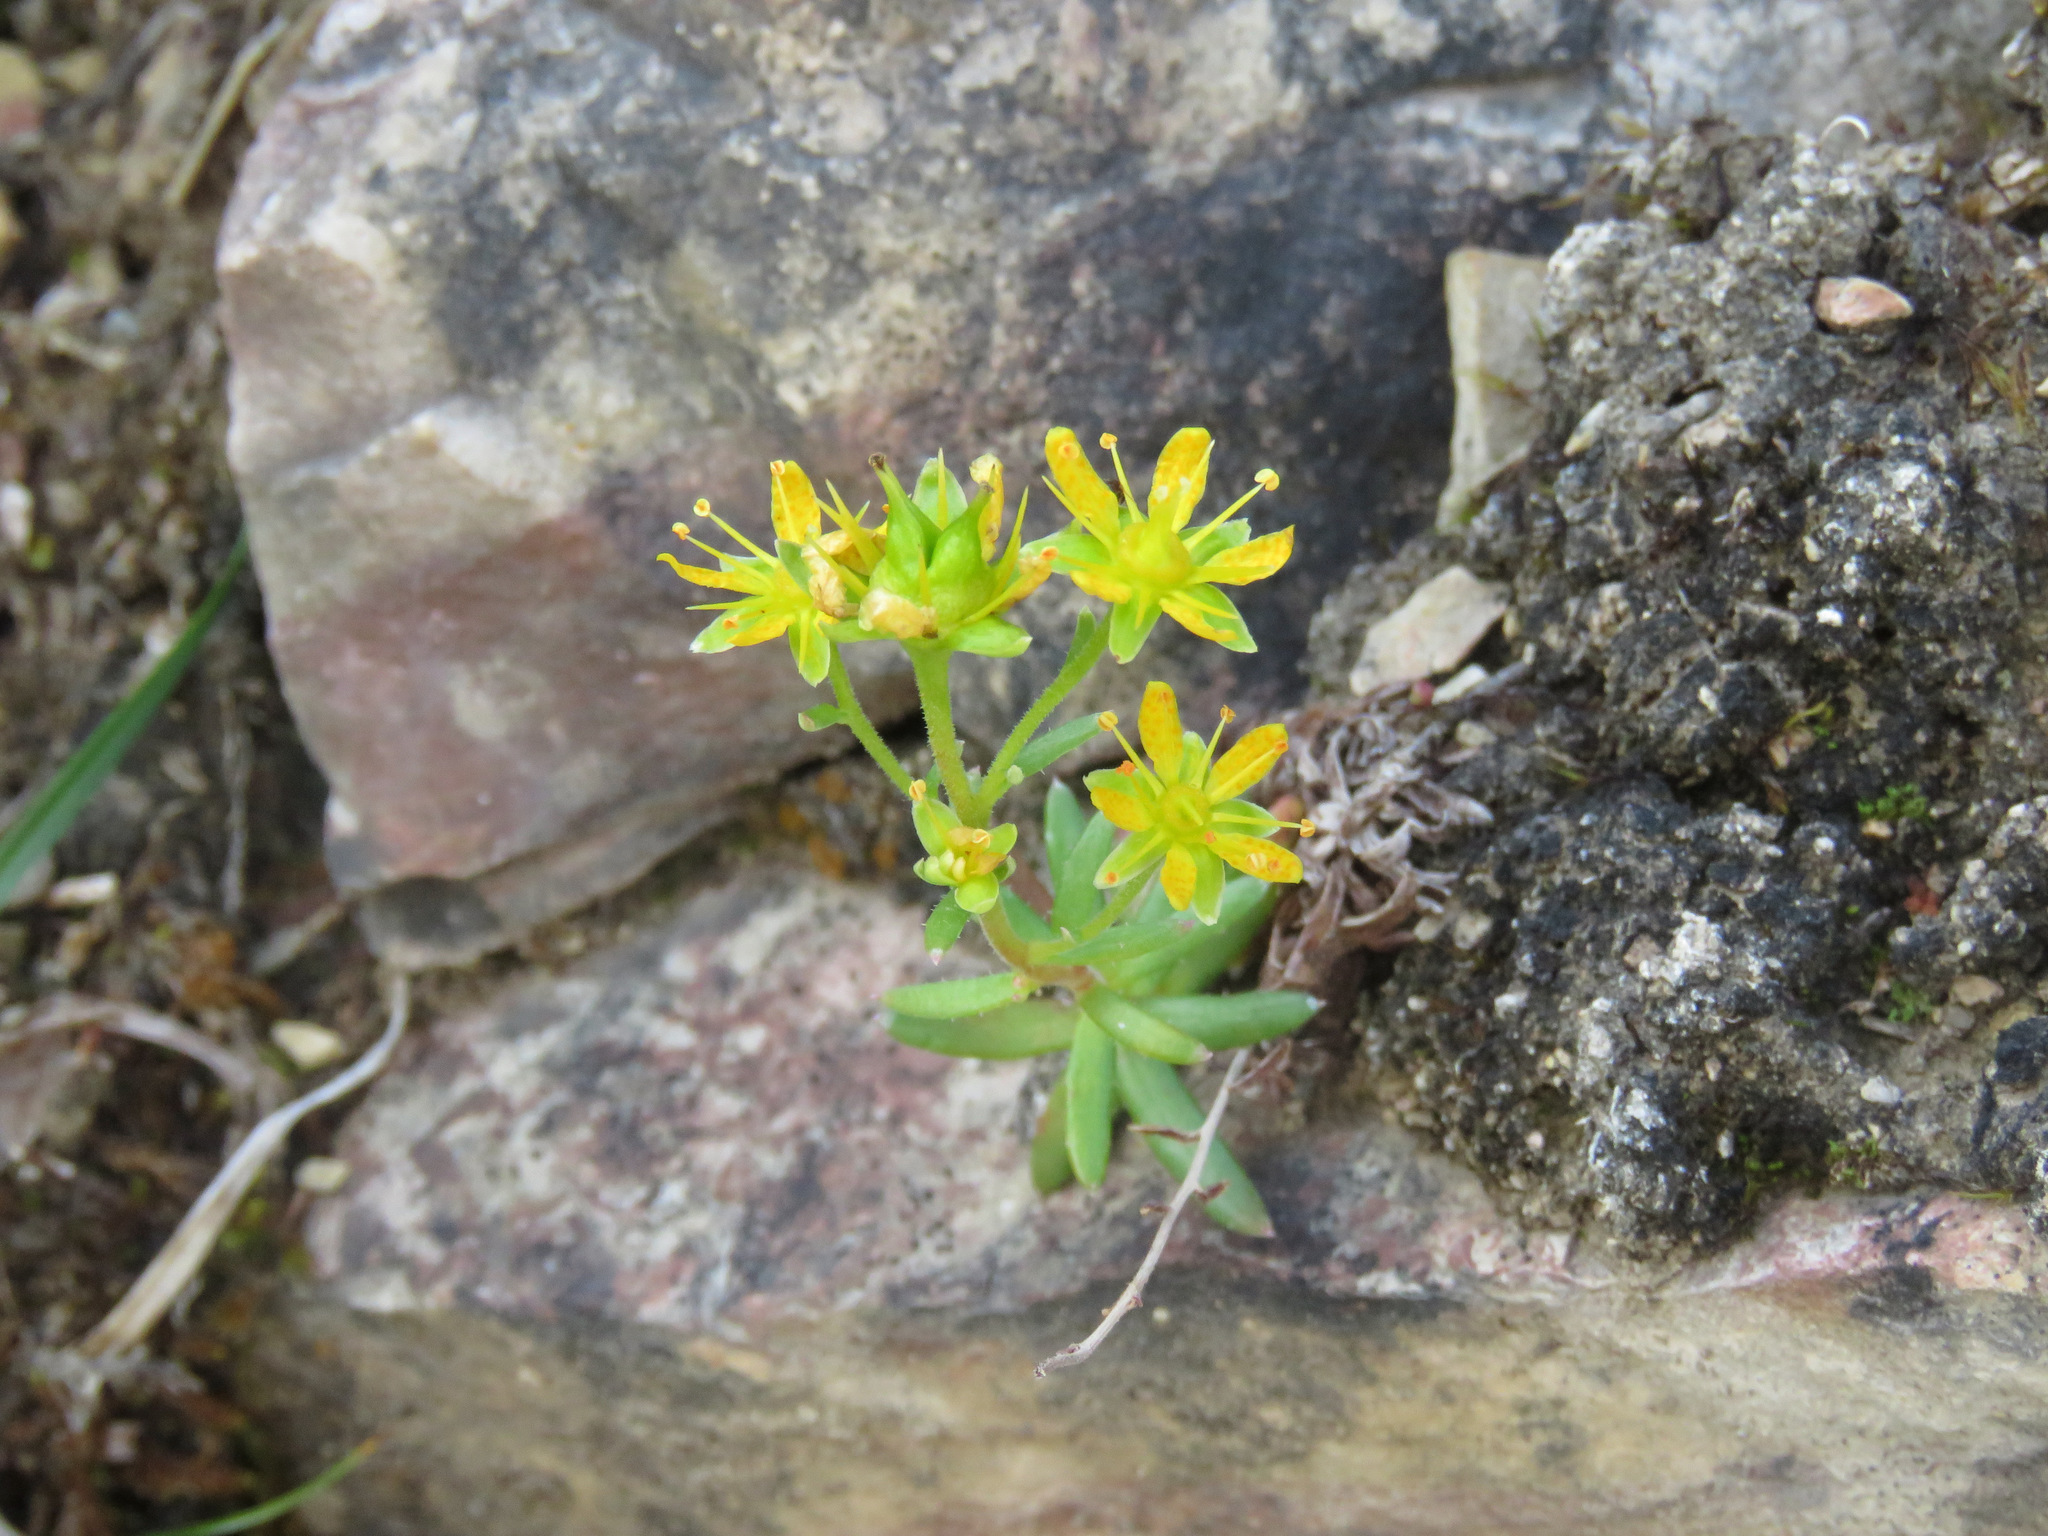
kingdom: Plantae
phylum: Tracheophyta
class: Magnoliopsida
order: Saxifragales
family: Saxifragaceae
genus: Saxifraga
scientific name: Saxifraga aizoides
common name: Yellow mountain saxifrage
